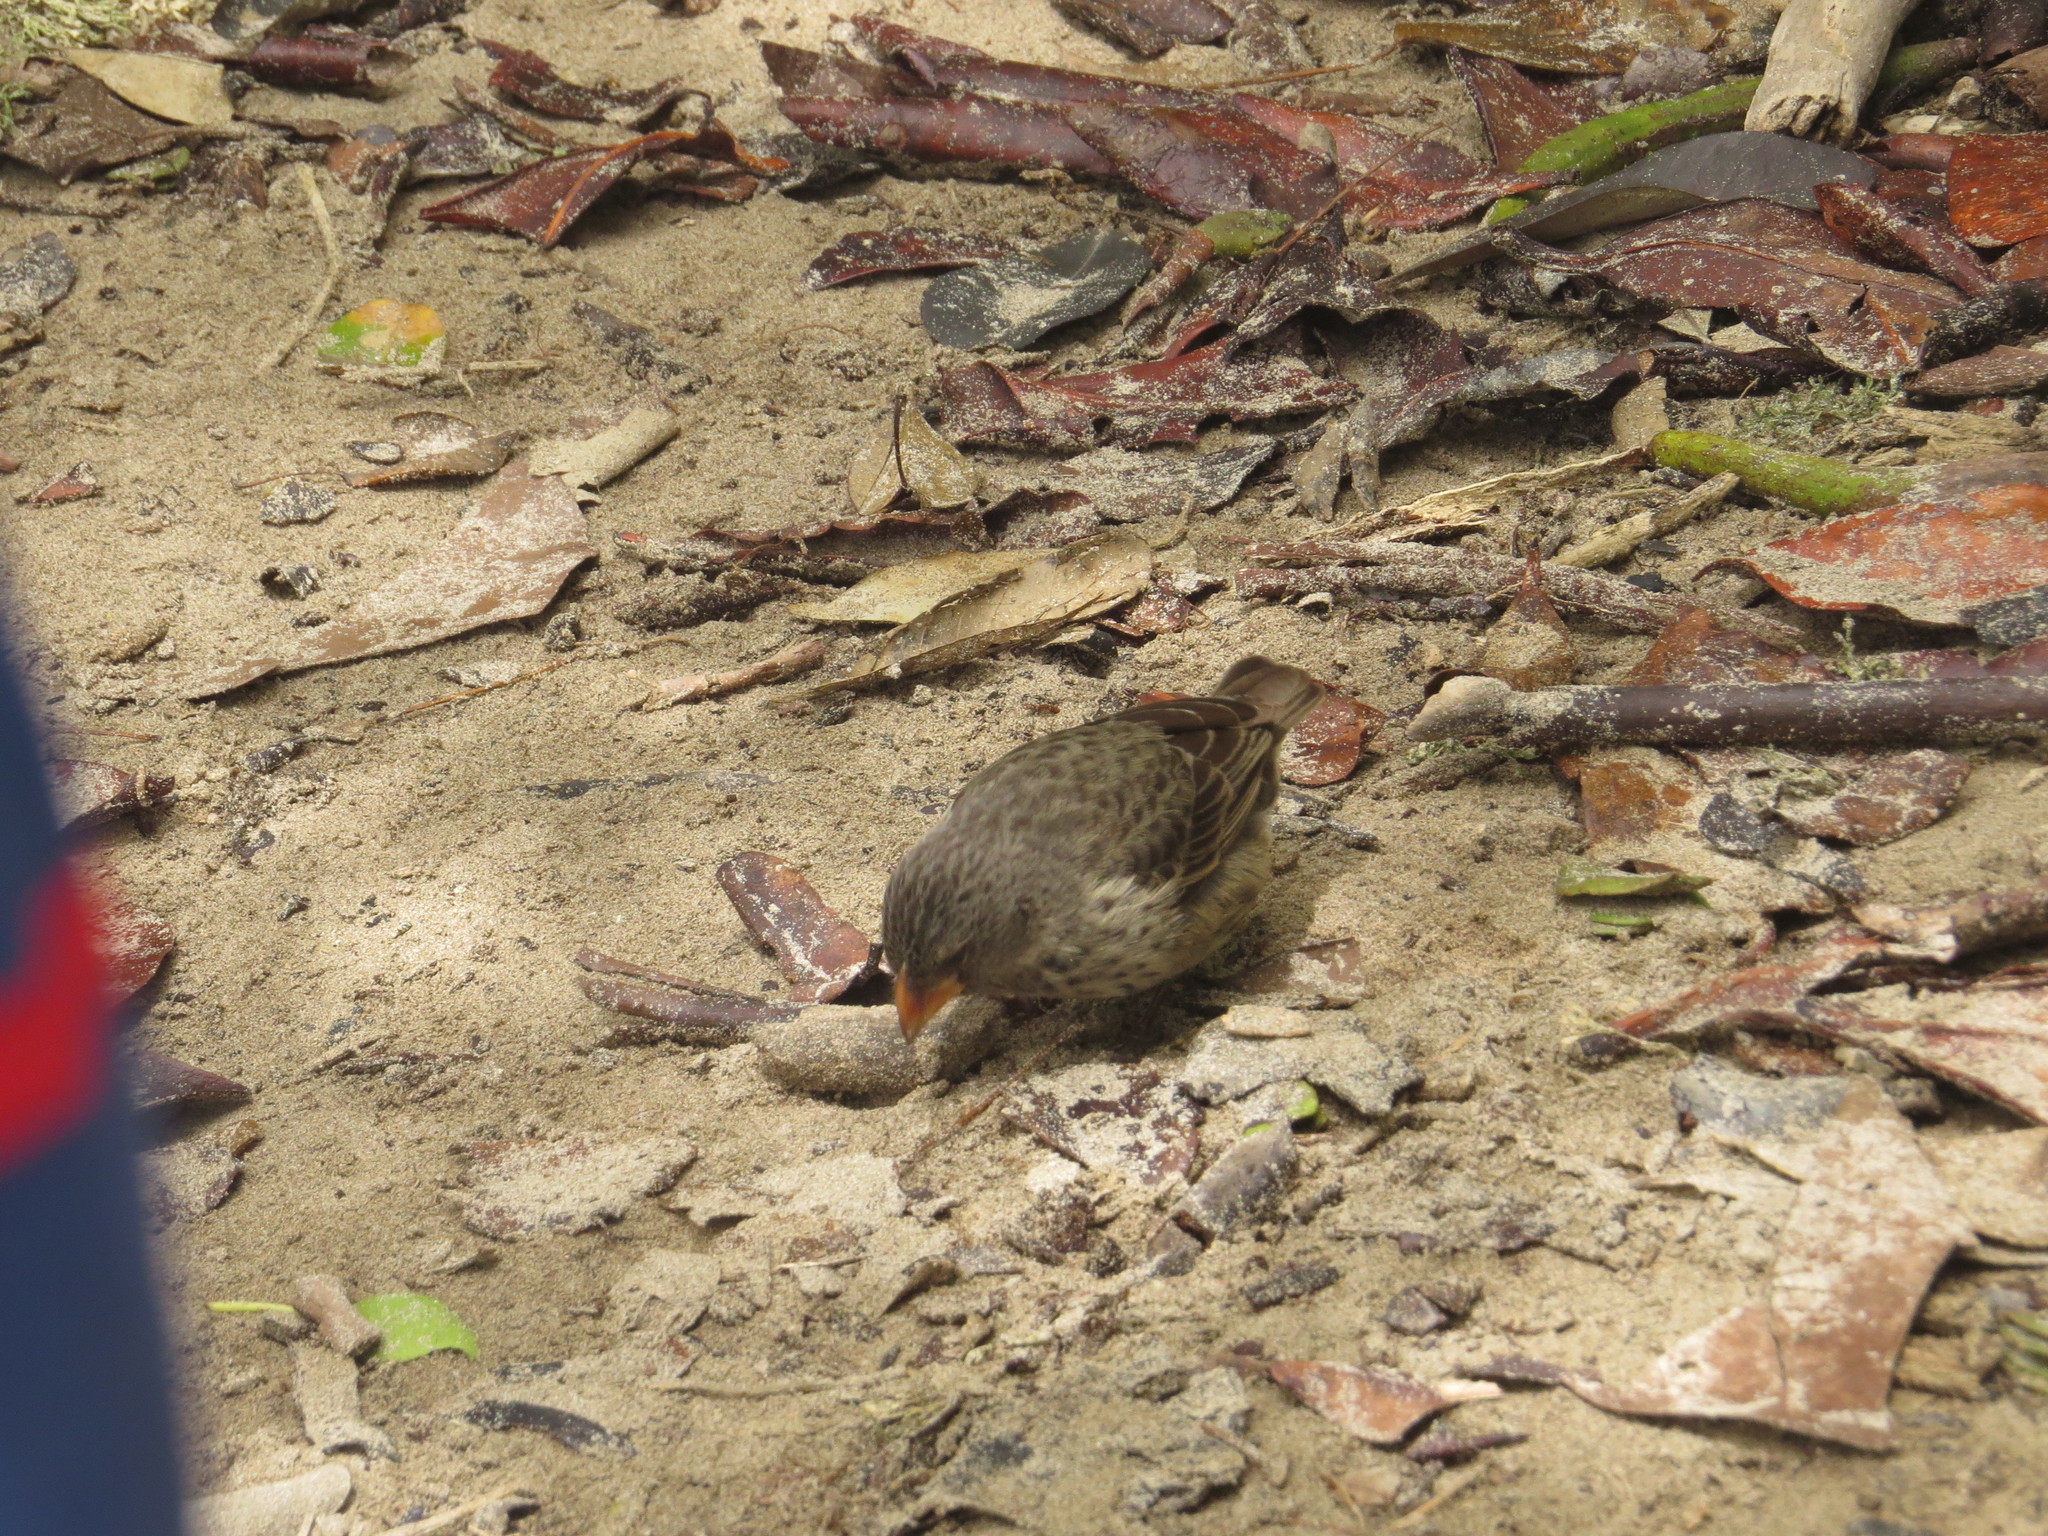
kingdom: Animalia
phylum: Chordata
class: Aves
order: Passeriformes
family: Thraupidae
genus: Geospiza
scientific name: Geospiza fuliginosa
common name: Small ground finch
